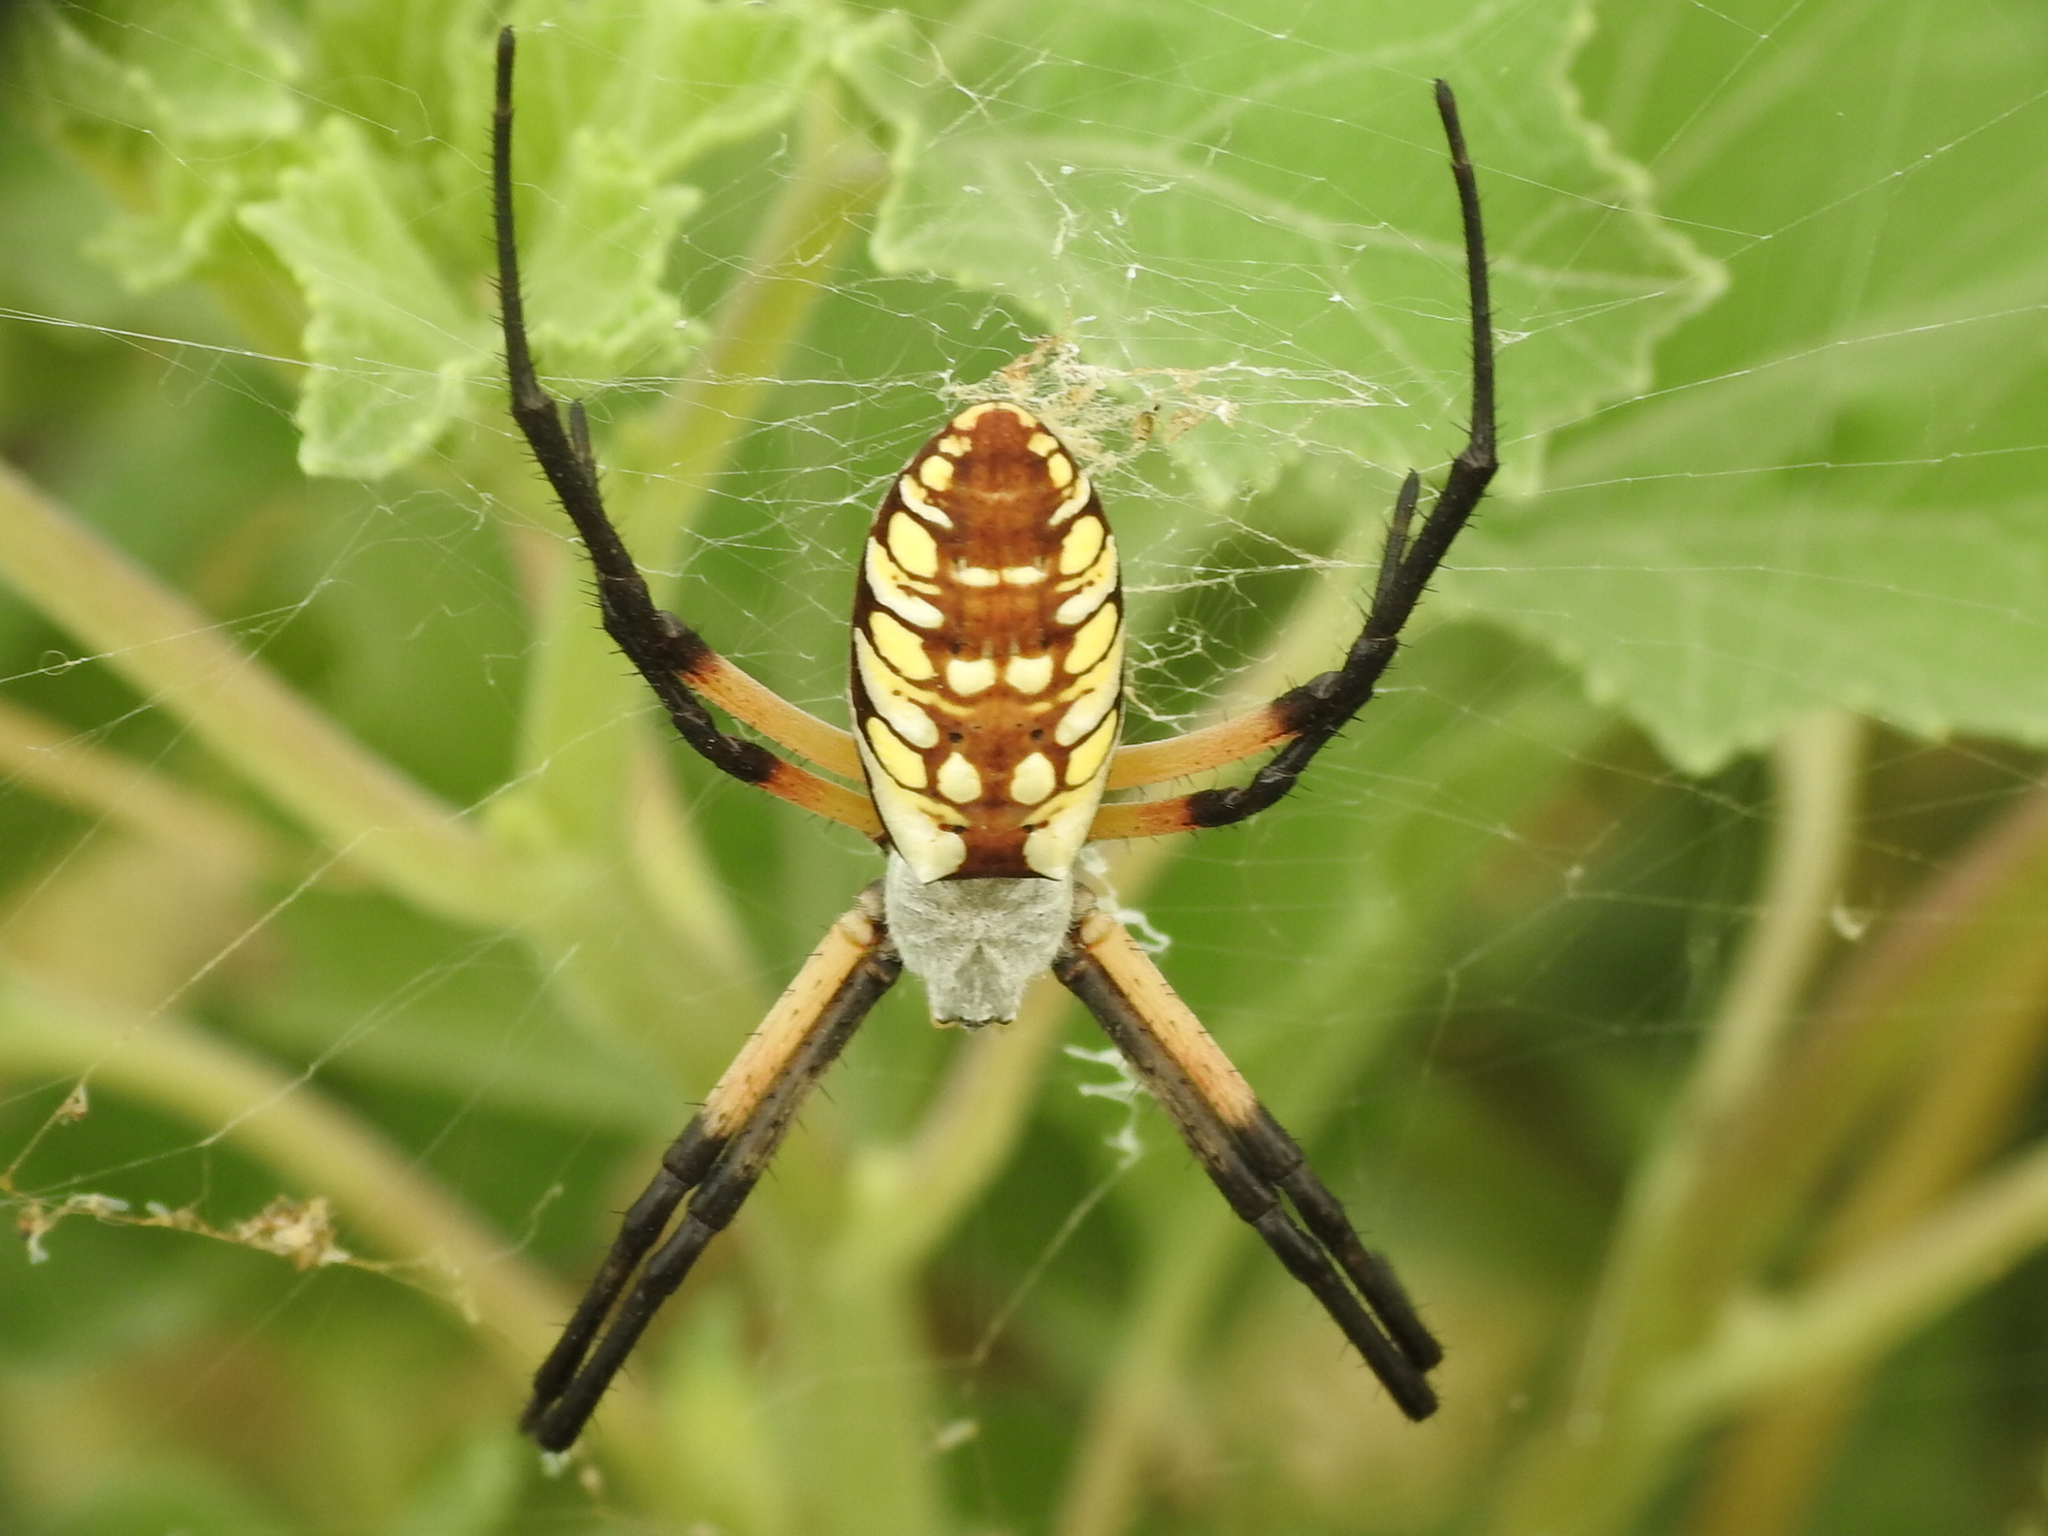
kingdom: Animalia
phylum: Arthropoda
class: Arachnida
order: Araneae
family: Araneidae
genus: Argiope
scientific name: Argiope aurantia
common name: Orb weavers
